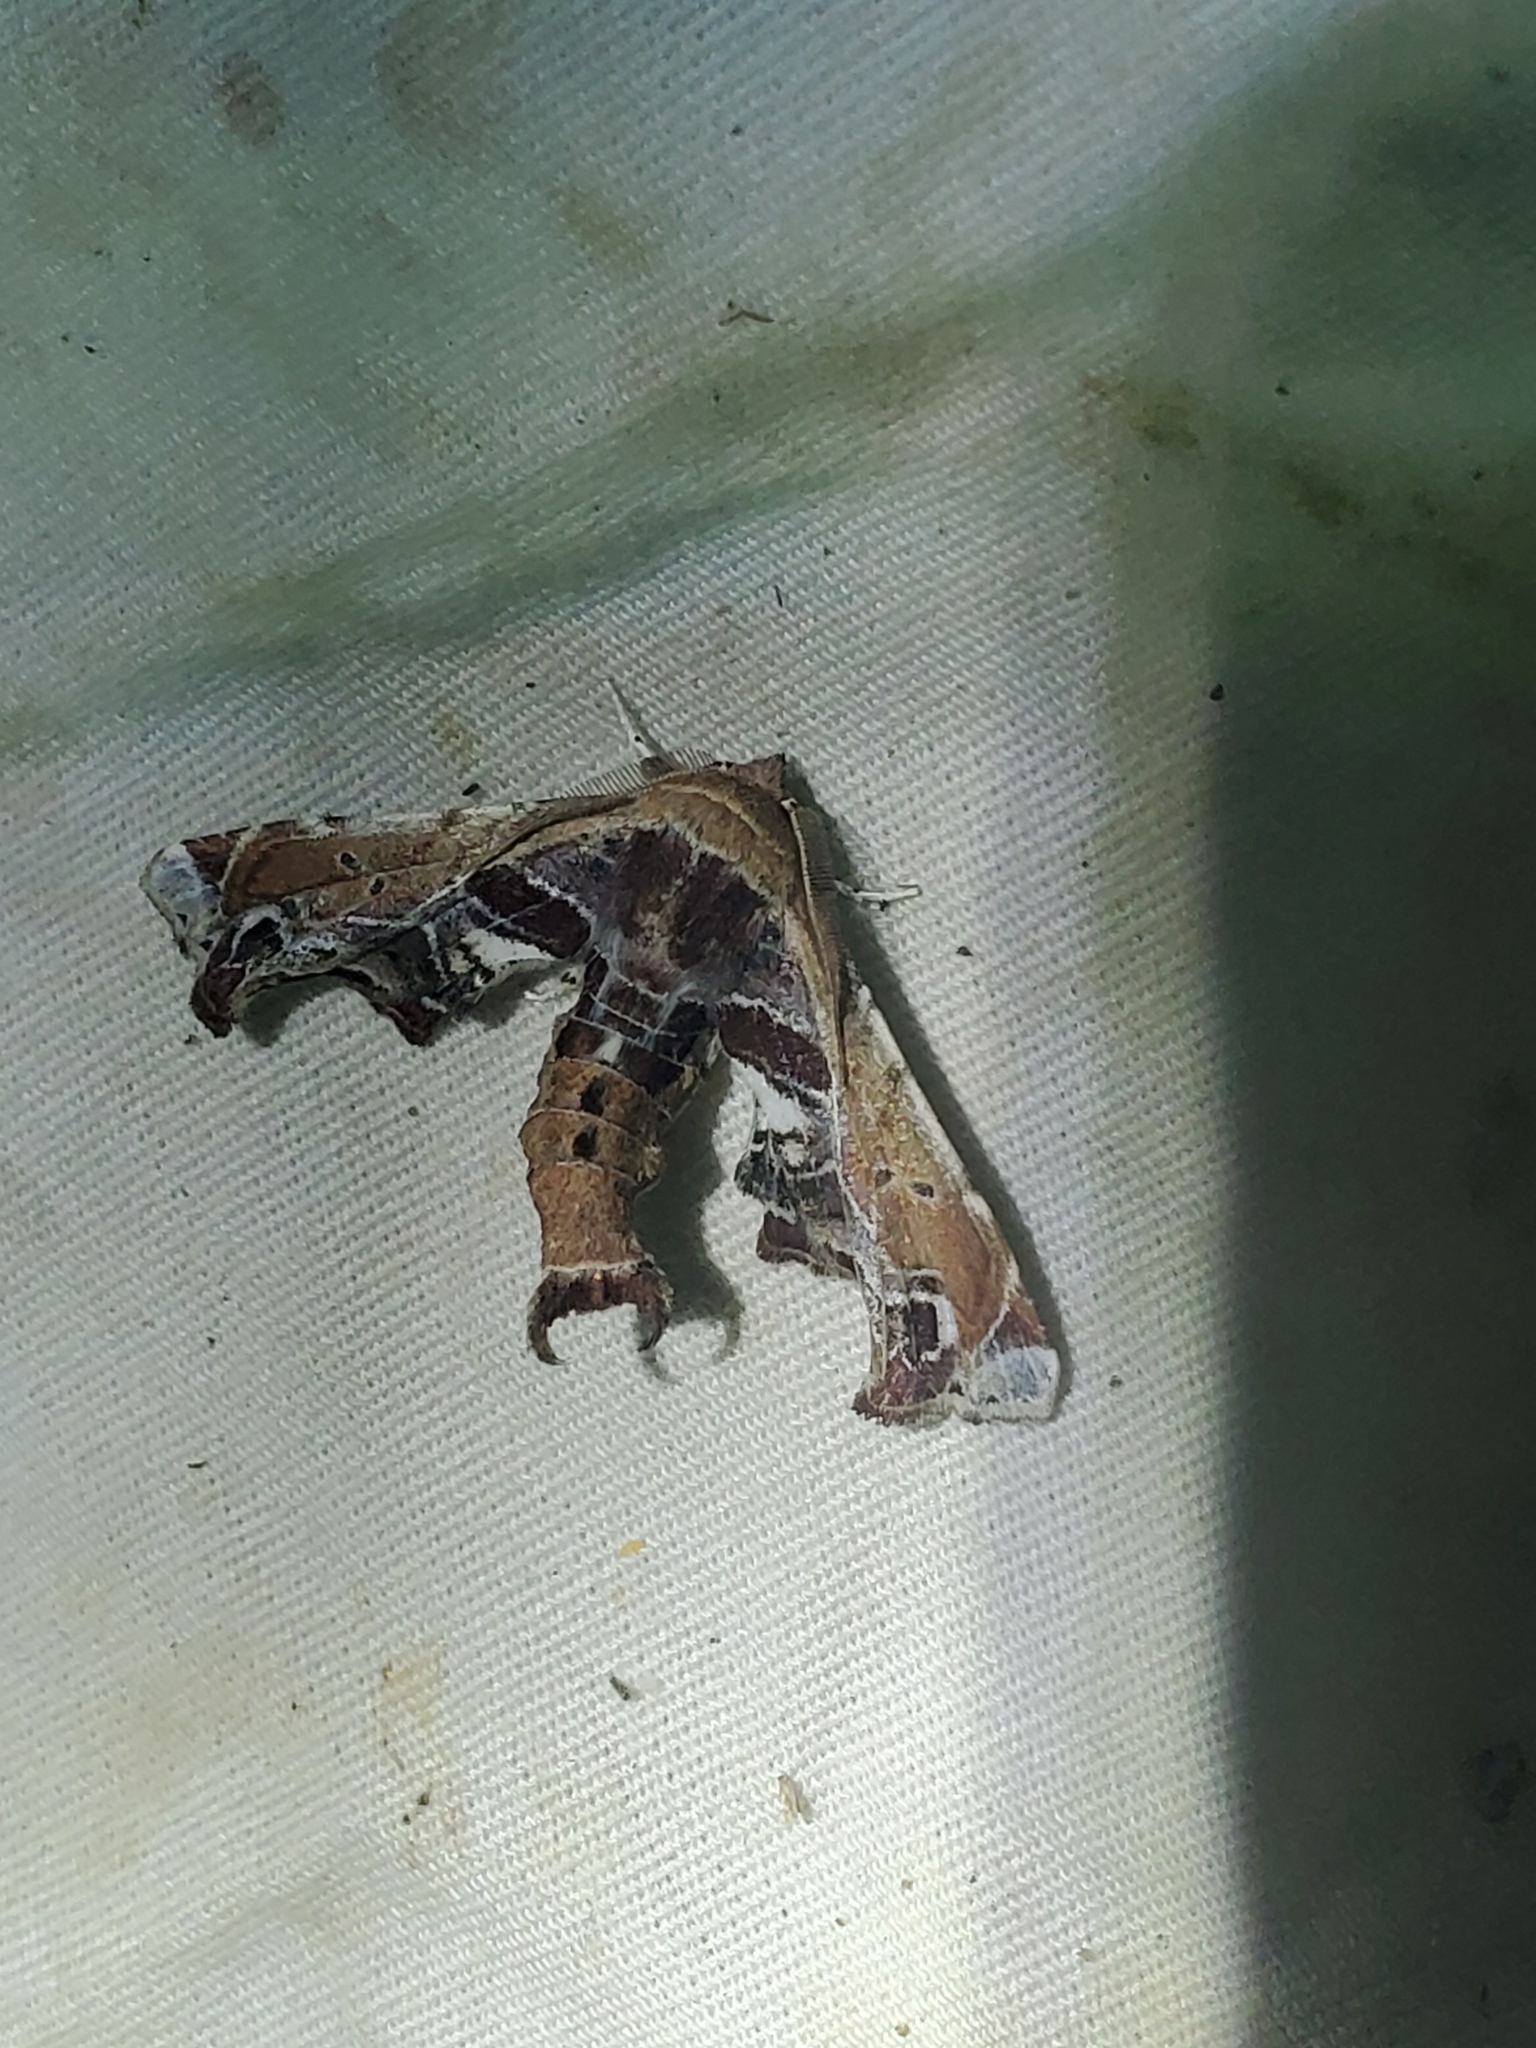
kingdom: Animalia
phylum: Arthropoda
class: Insecta
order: Lepidoptera
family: Euteliidae
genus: Eutelia
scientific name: Eutelia pulcherrimus
